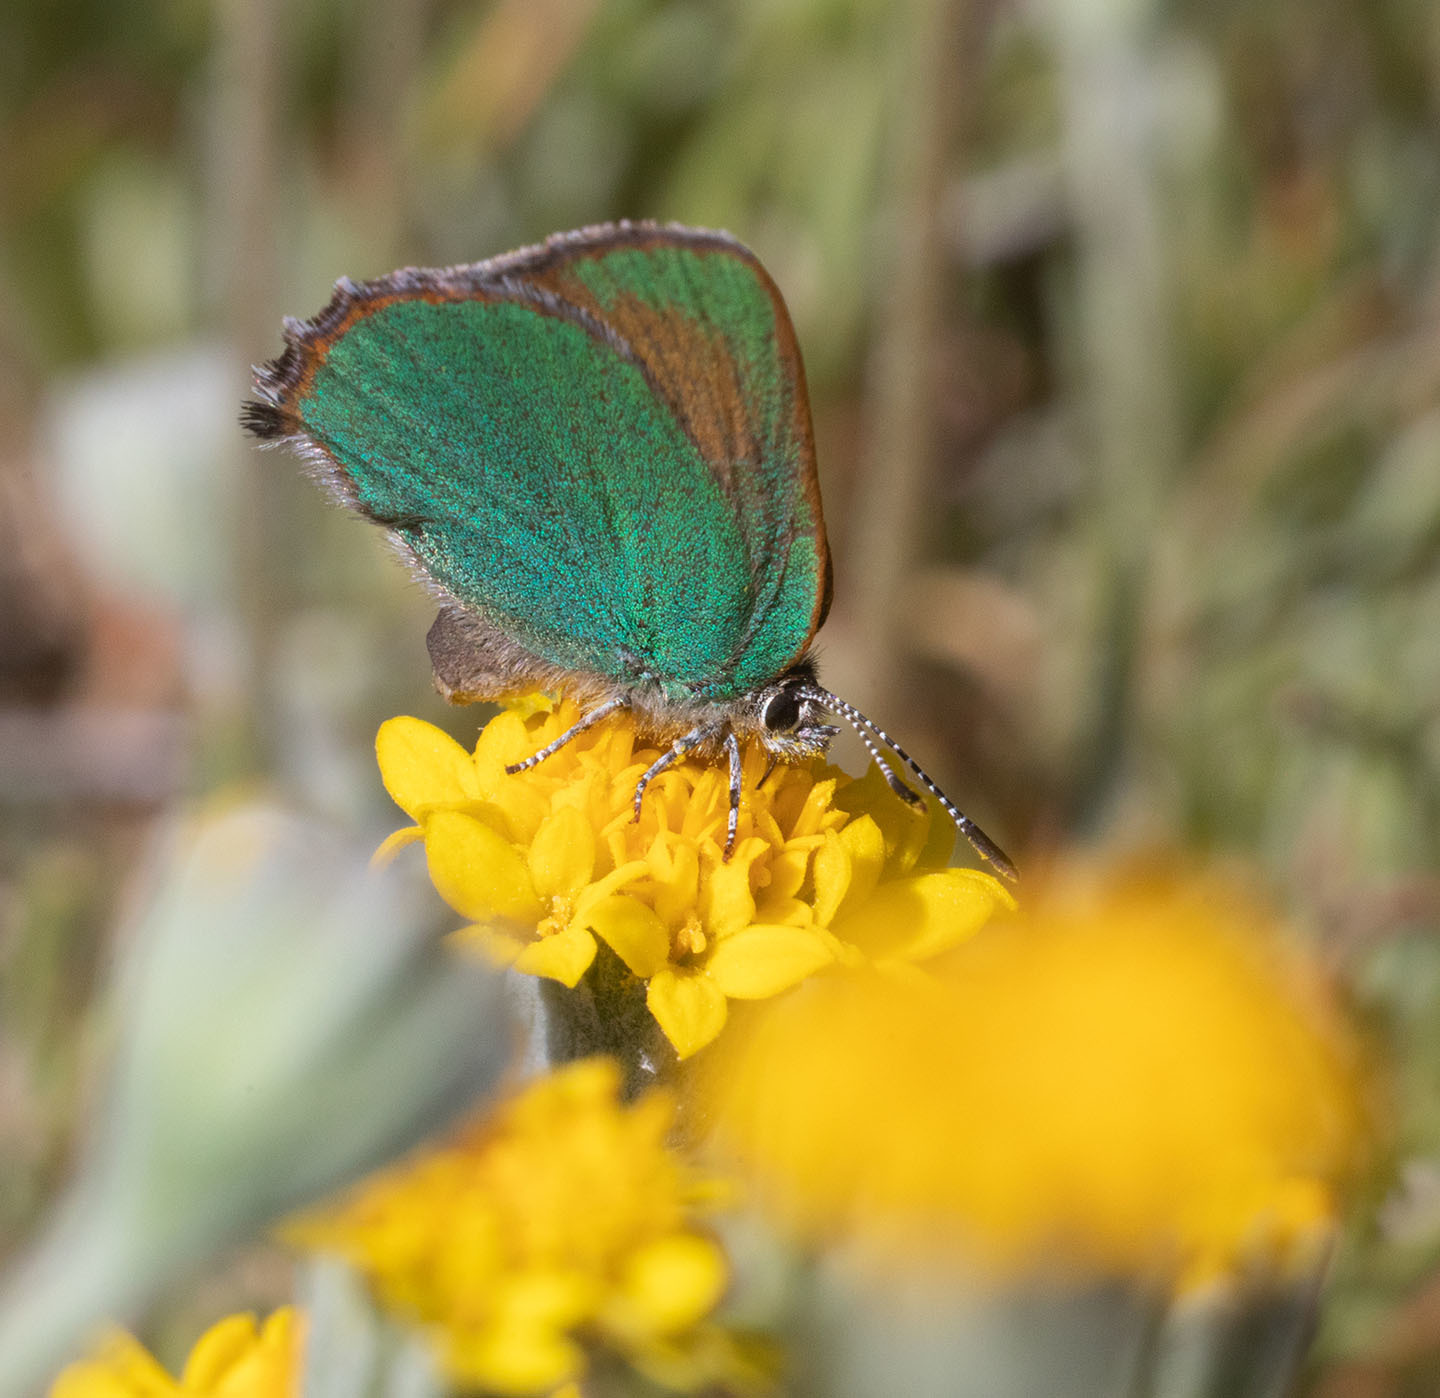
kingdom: Animalia
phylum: Arthropoda
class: Insecta
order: Lepidoptera
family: Lycaenidae
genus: Callophrys
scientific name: Callophrys dumetorum
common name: Bramble hairstreak
